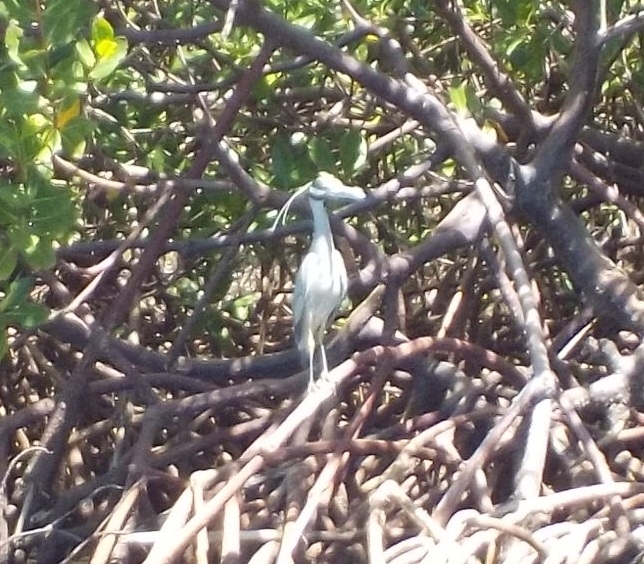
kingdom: Animalia
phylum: Chordata
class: Aves
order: Pelecaniformes
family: Ardeidae
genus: Nyctanassa
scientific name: Nyctanassa violacea
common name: Yellow-crowned night heron
